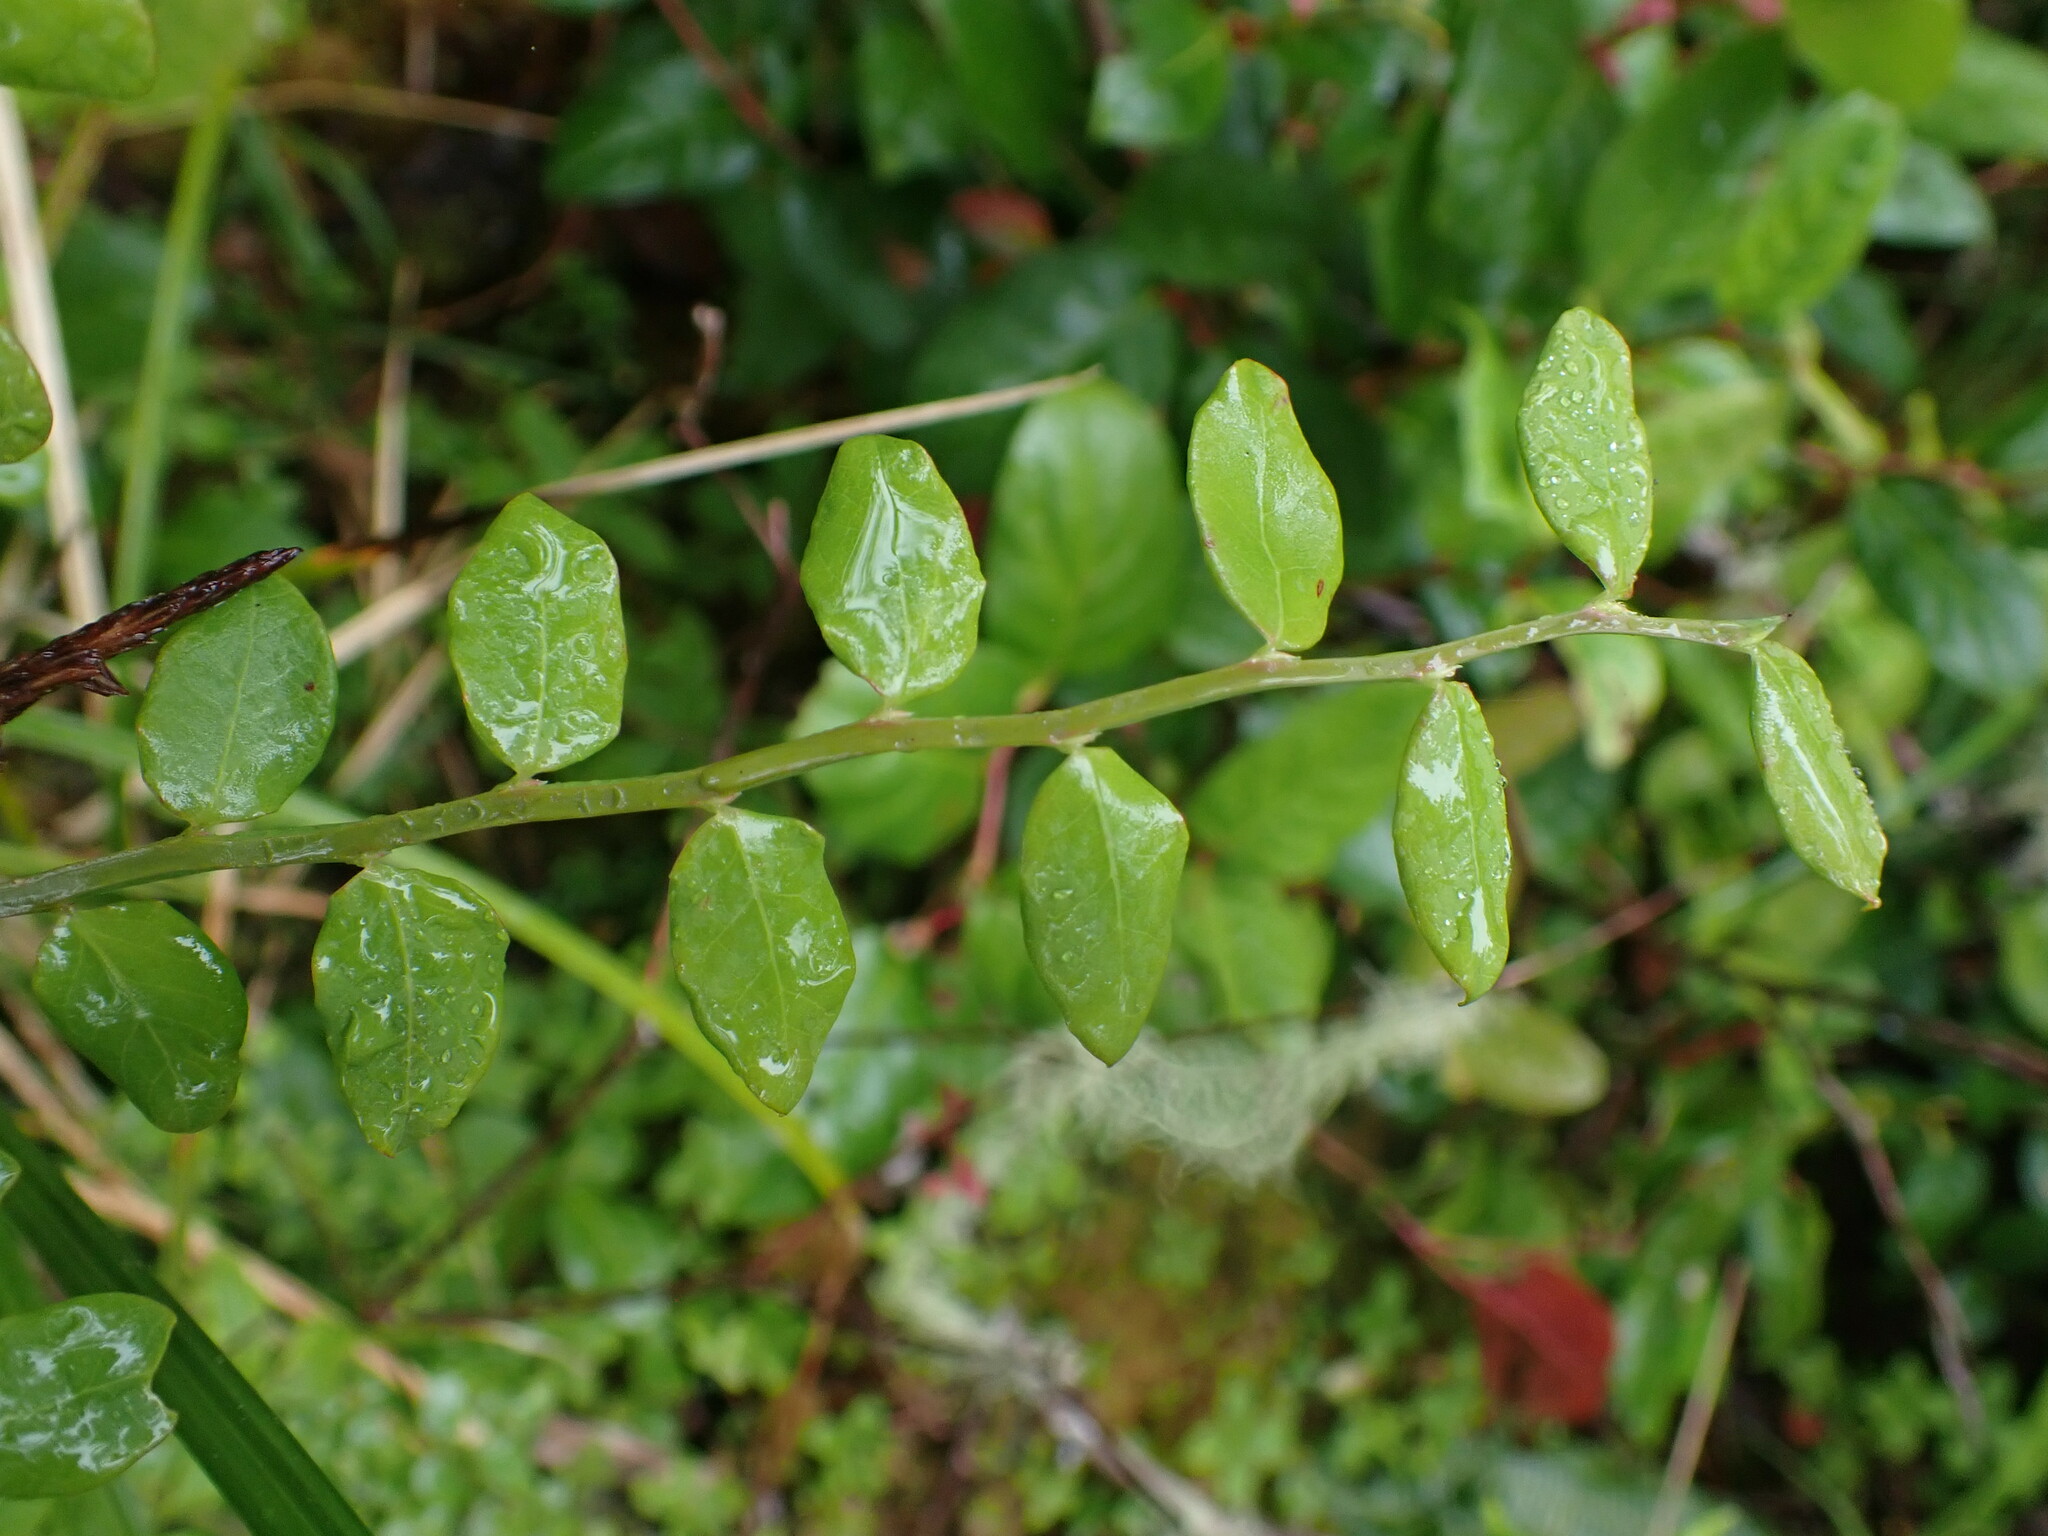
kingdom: Plantae
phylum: Tracheophyta
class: Magnoliopsida
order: Ericales
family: Ericaceae
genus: Vaccinium
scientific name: Vaccinium parvifolium
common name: Red-huckleberry
